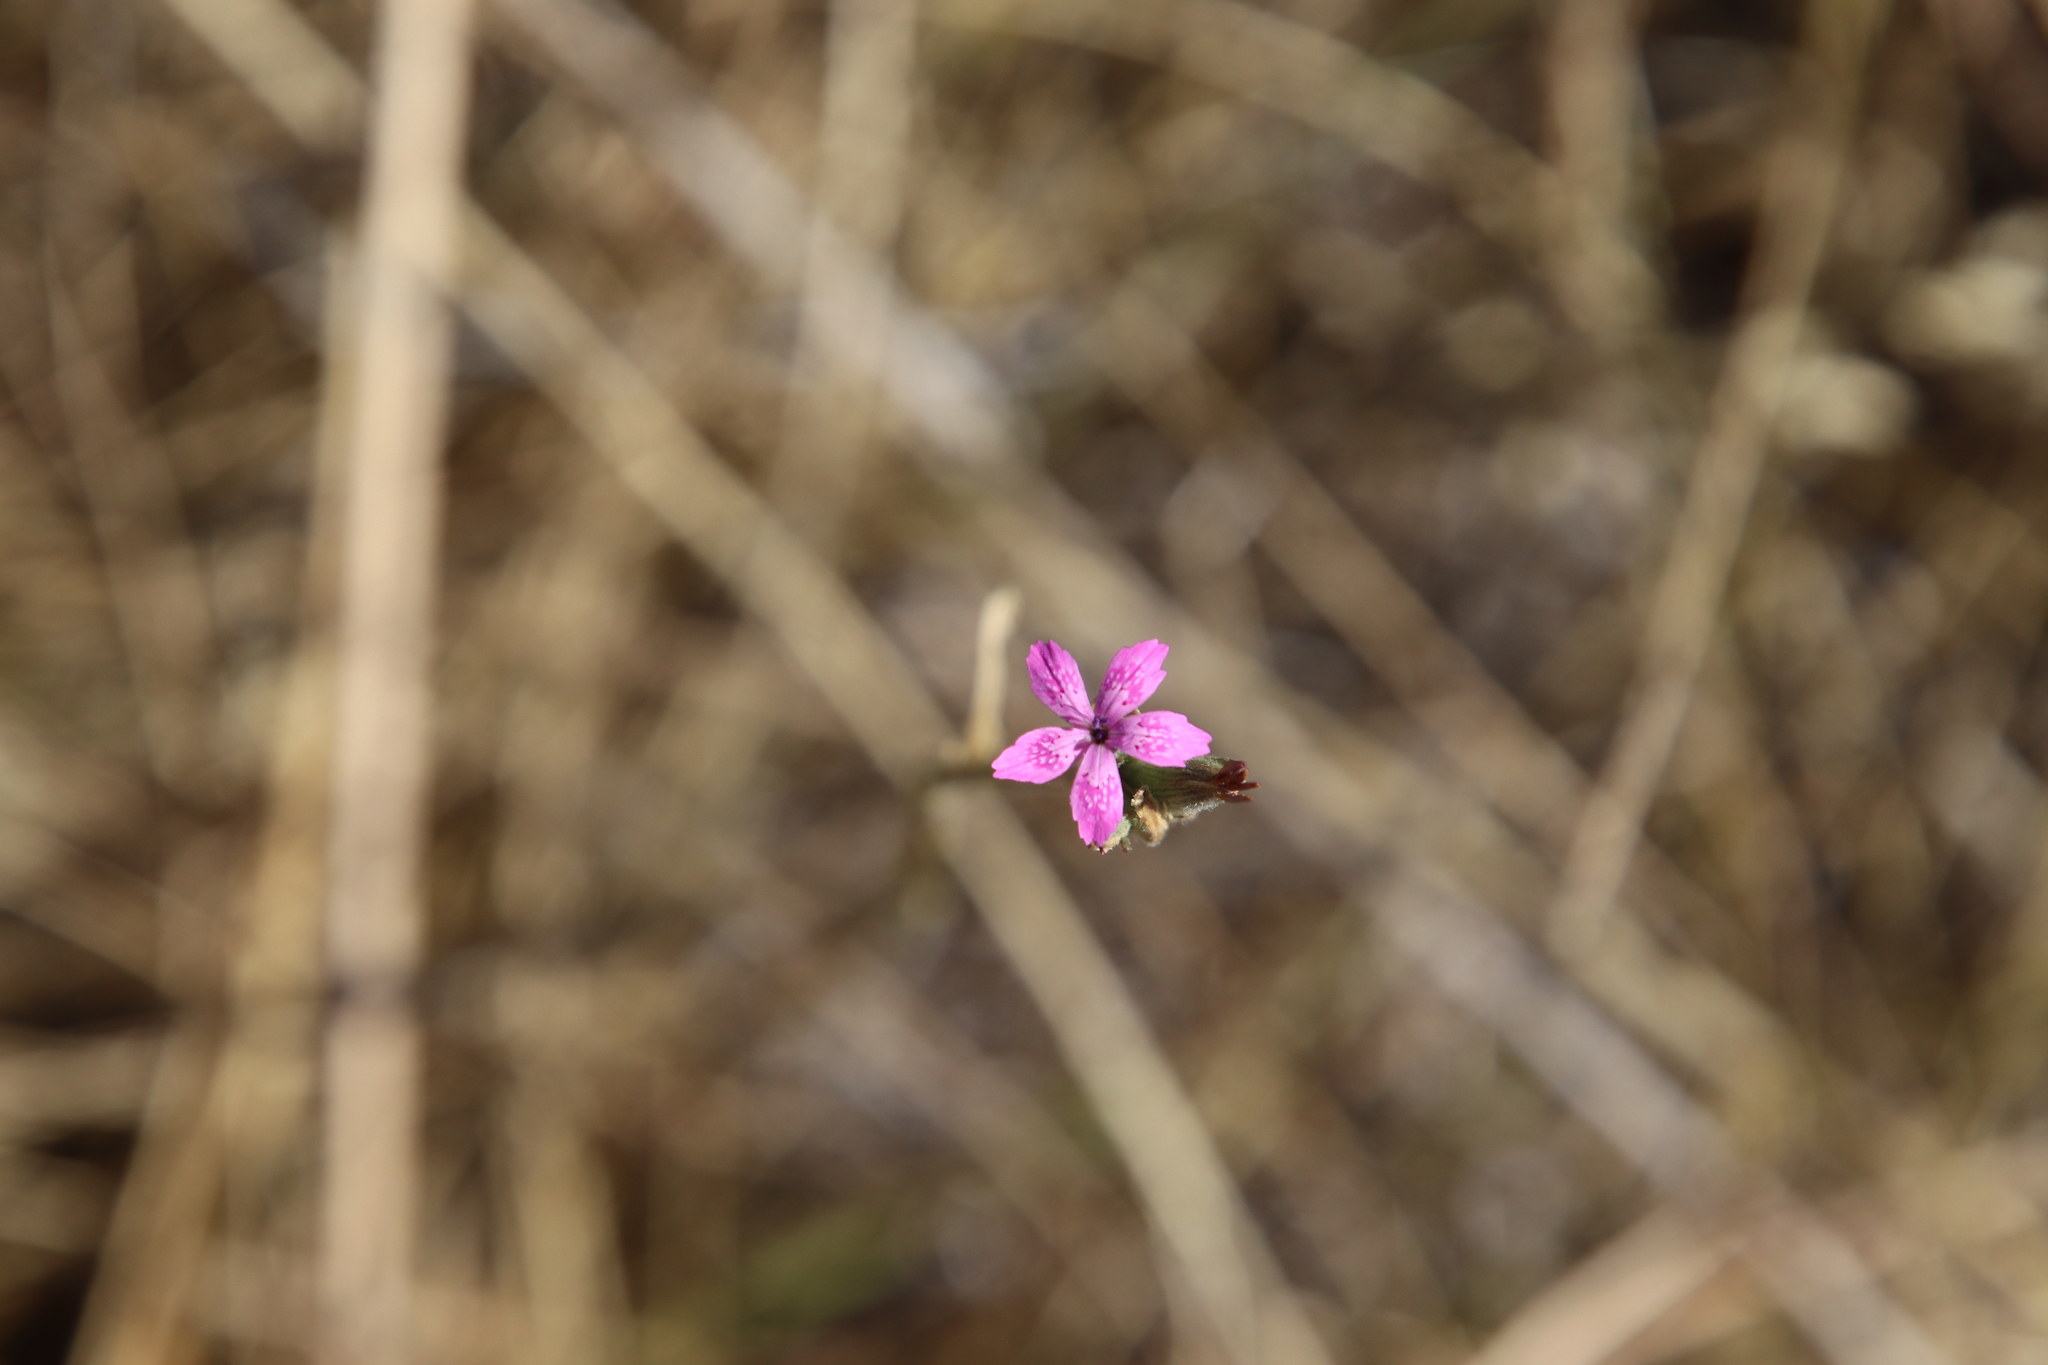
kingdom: Plantae
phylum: Tracheophyta
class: Magnoliopsida
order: Caryophyllales
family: Caryophyllaceae
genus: Dianthus
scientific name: Dianthus armeria
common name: Deptford pink
